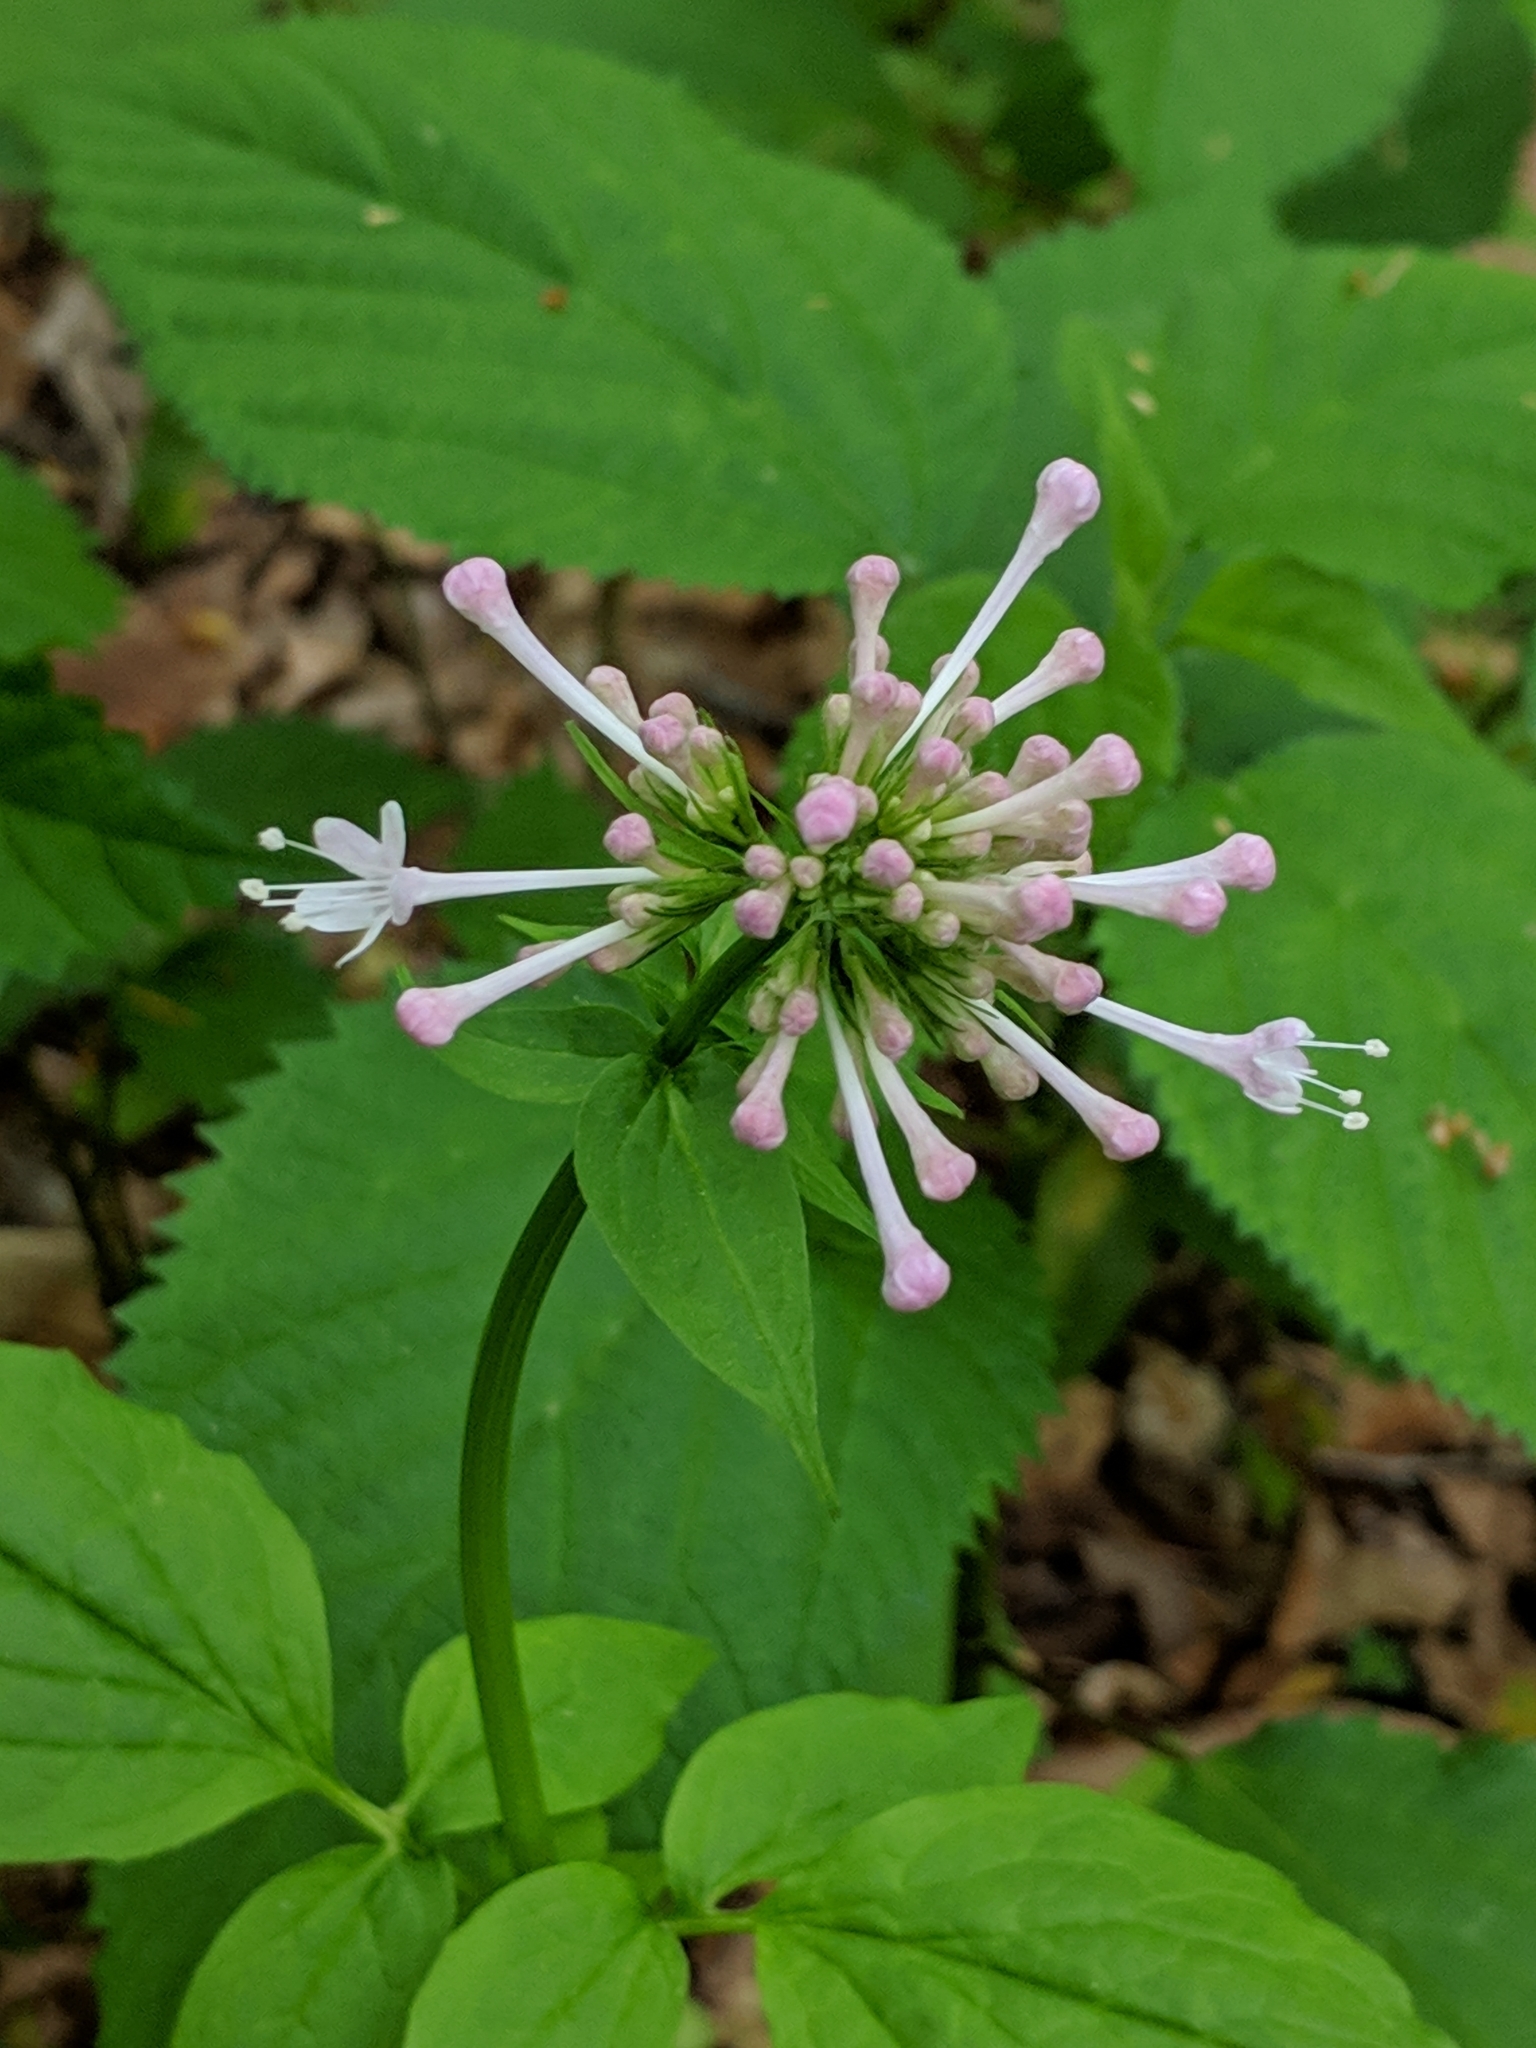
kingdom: Plantae
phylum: Tracheophyta
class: Magnoliopsida
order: Dipsacales
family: Caprifoliaceae
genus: Valeriana
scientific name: Valeriana pauciflora
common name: Long-tube valeriana
